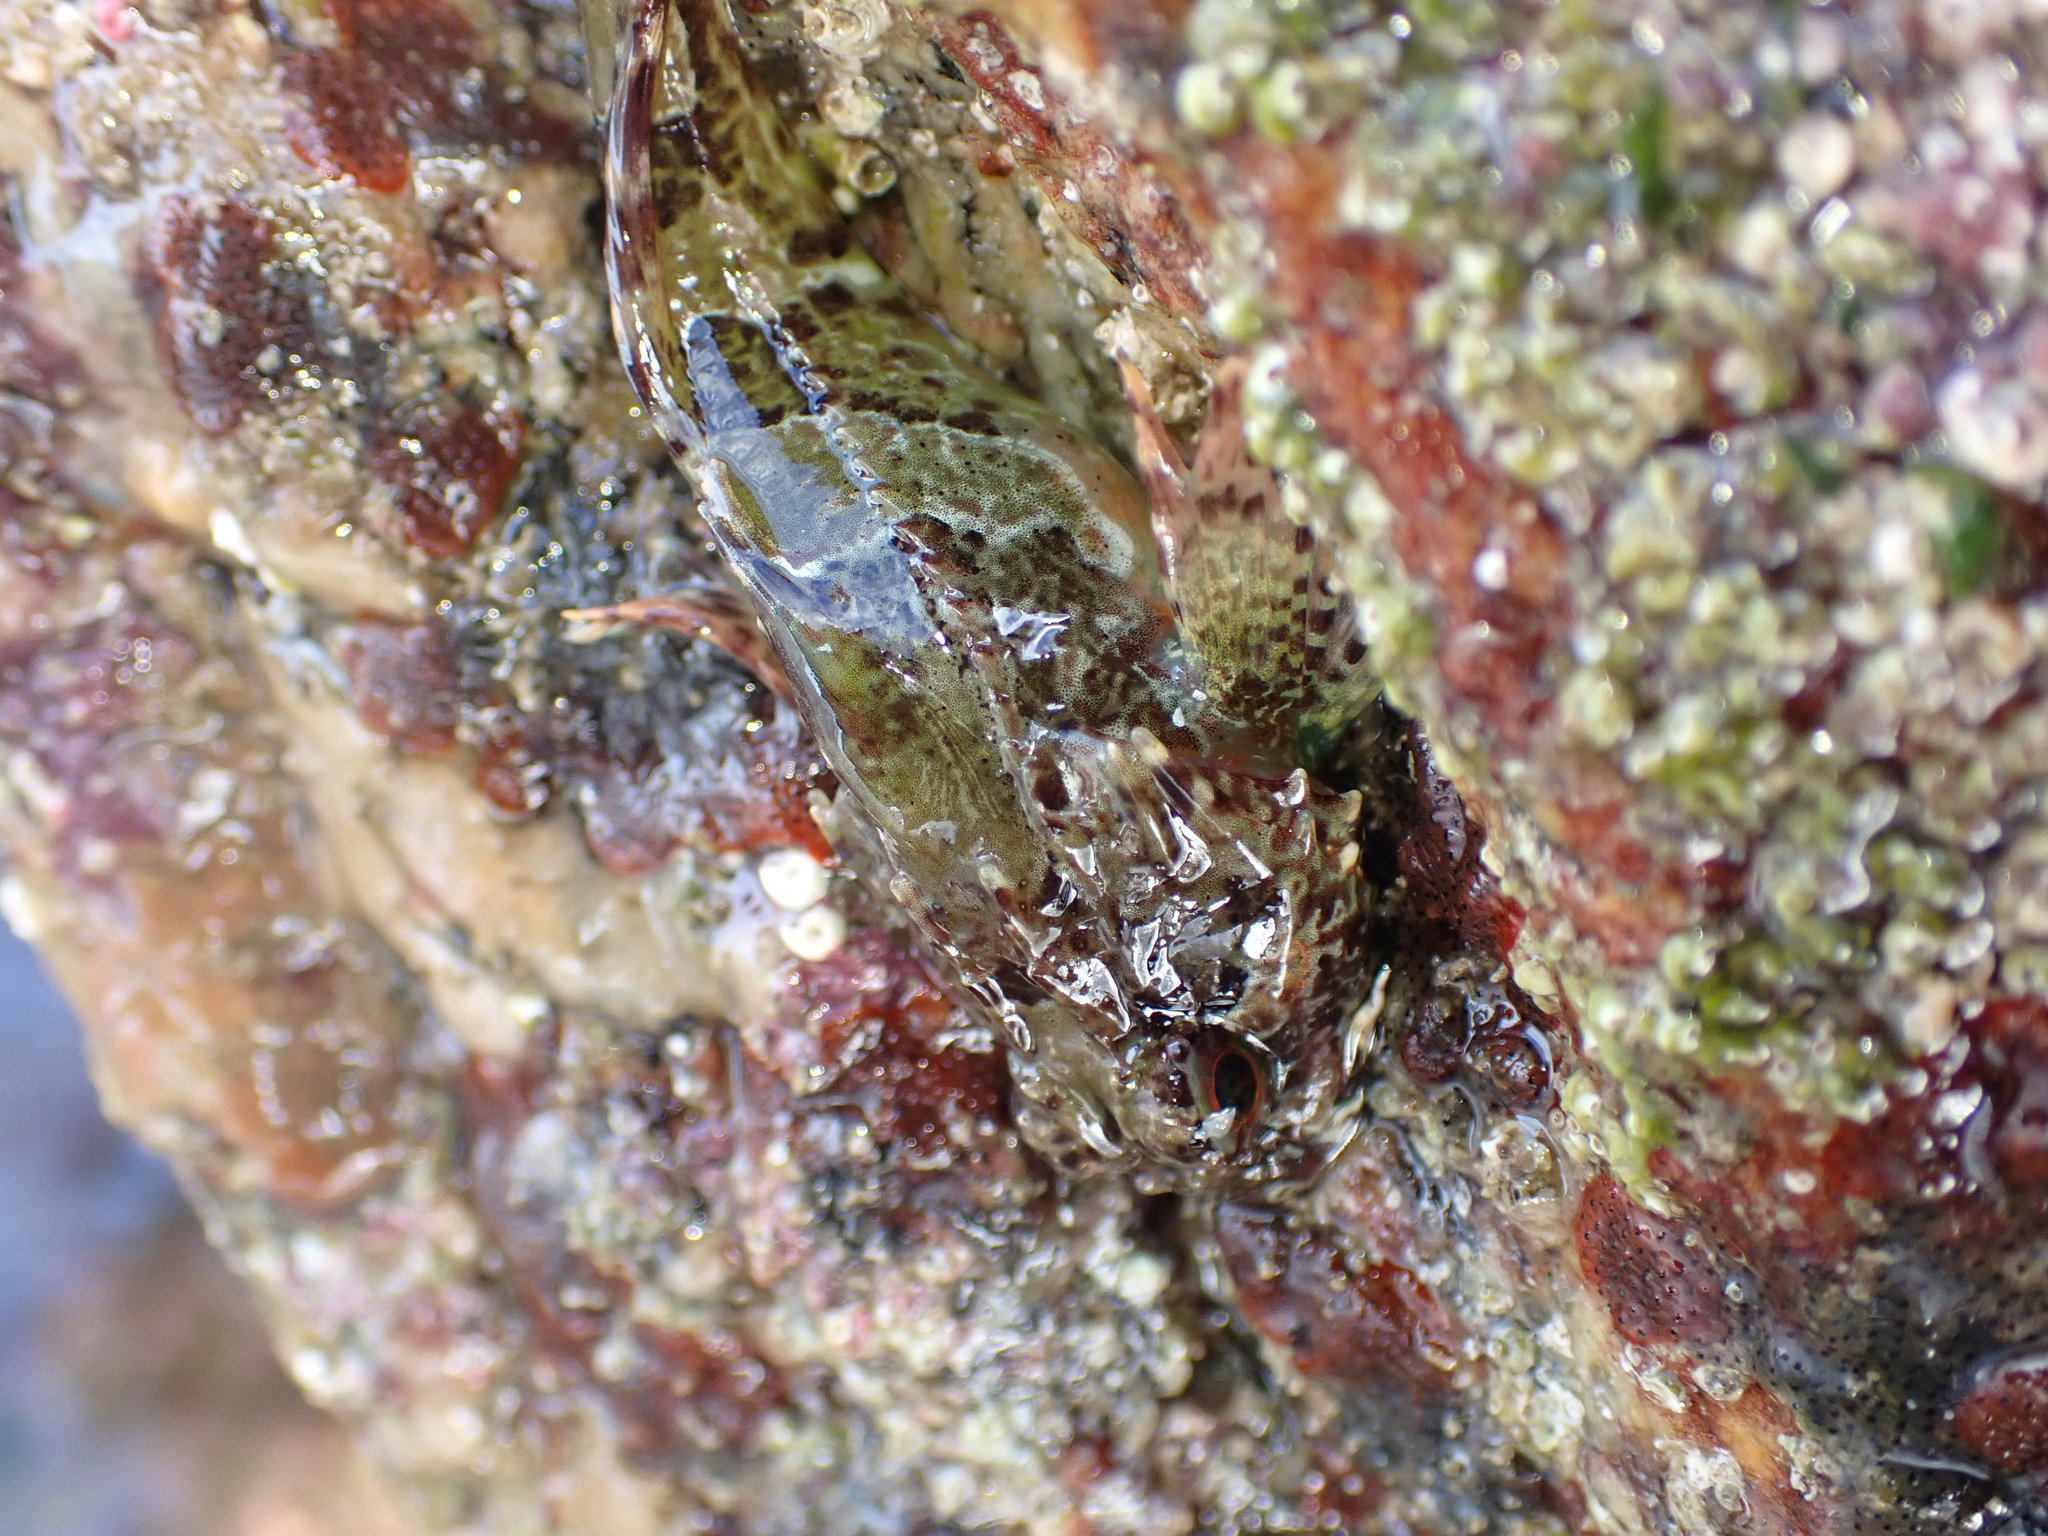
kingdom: Animalia
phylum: Chordata
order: Scorpaeniformes
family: Cottidae
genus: Taurulus
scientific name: Taurulus bubalis
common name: Sea scorpion
